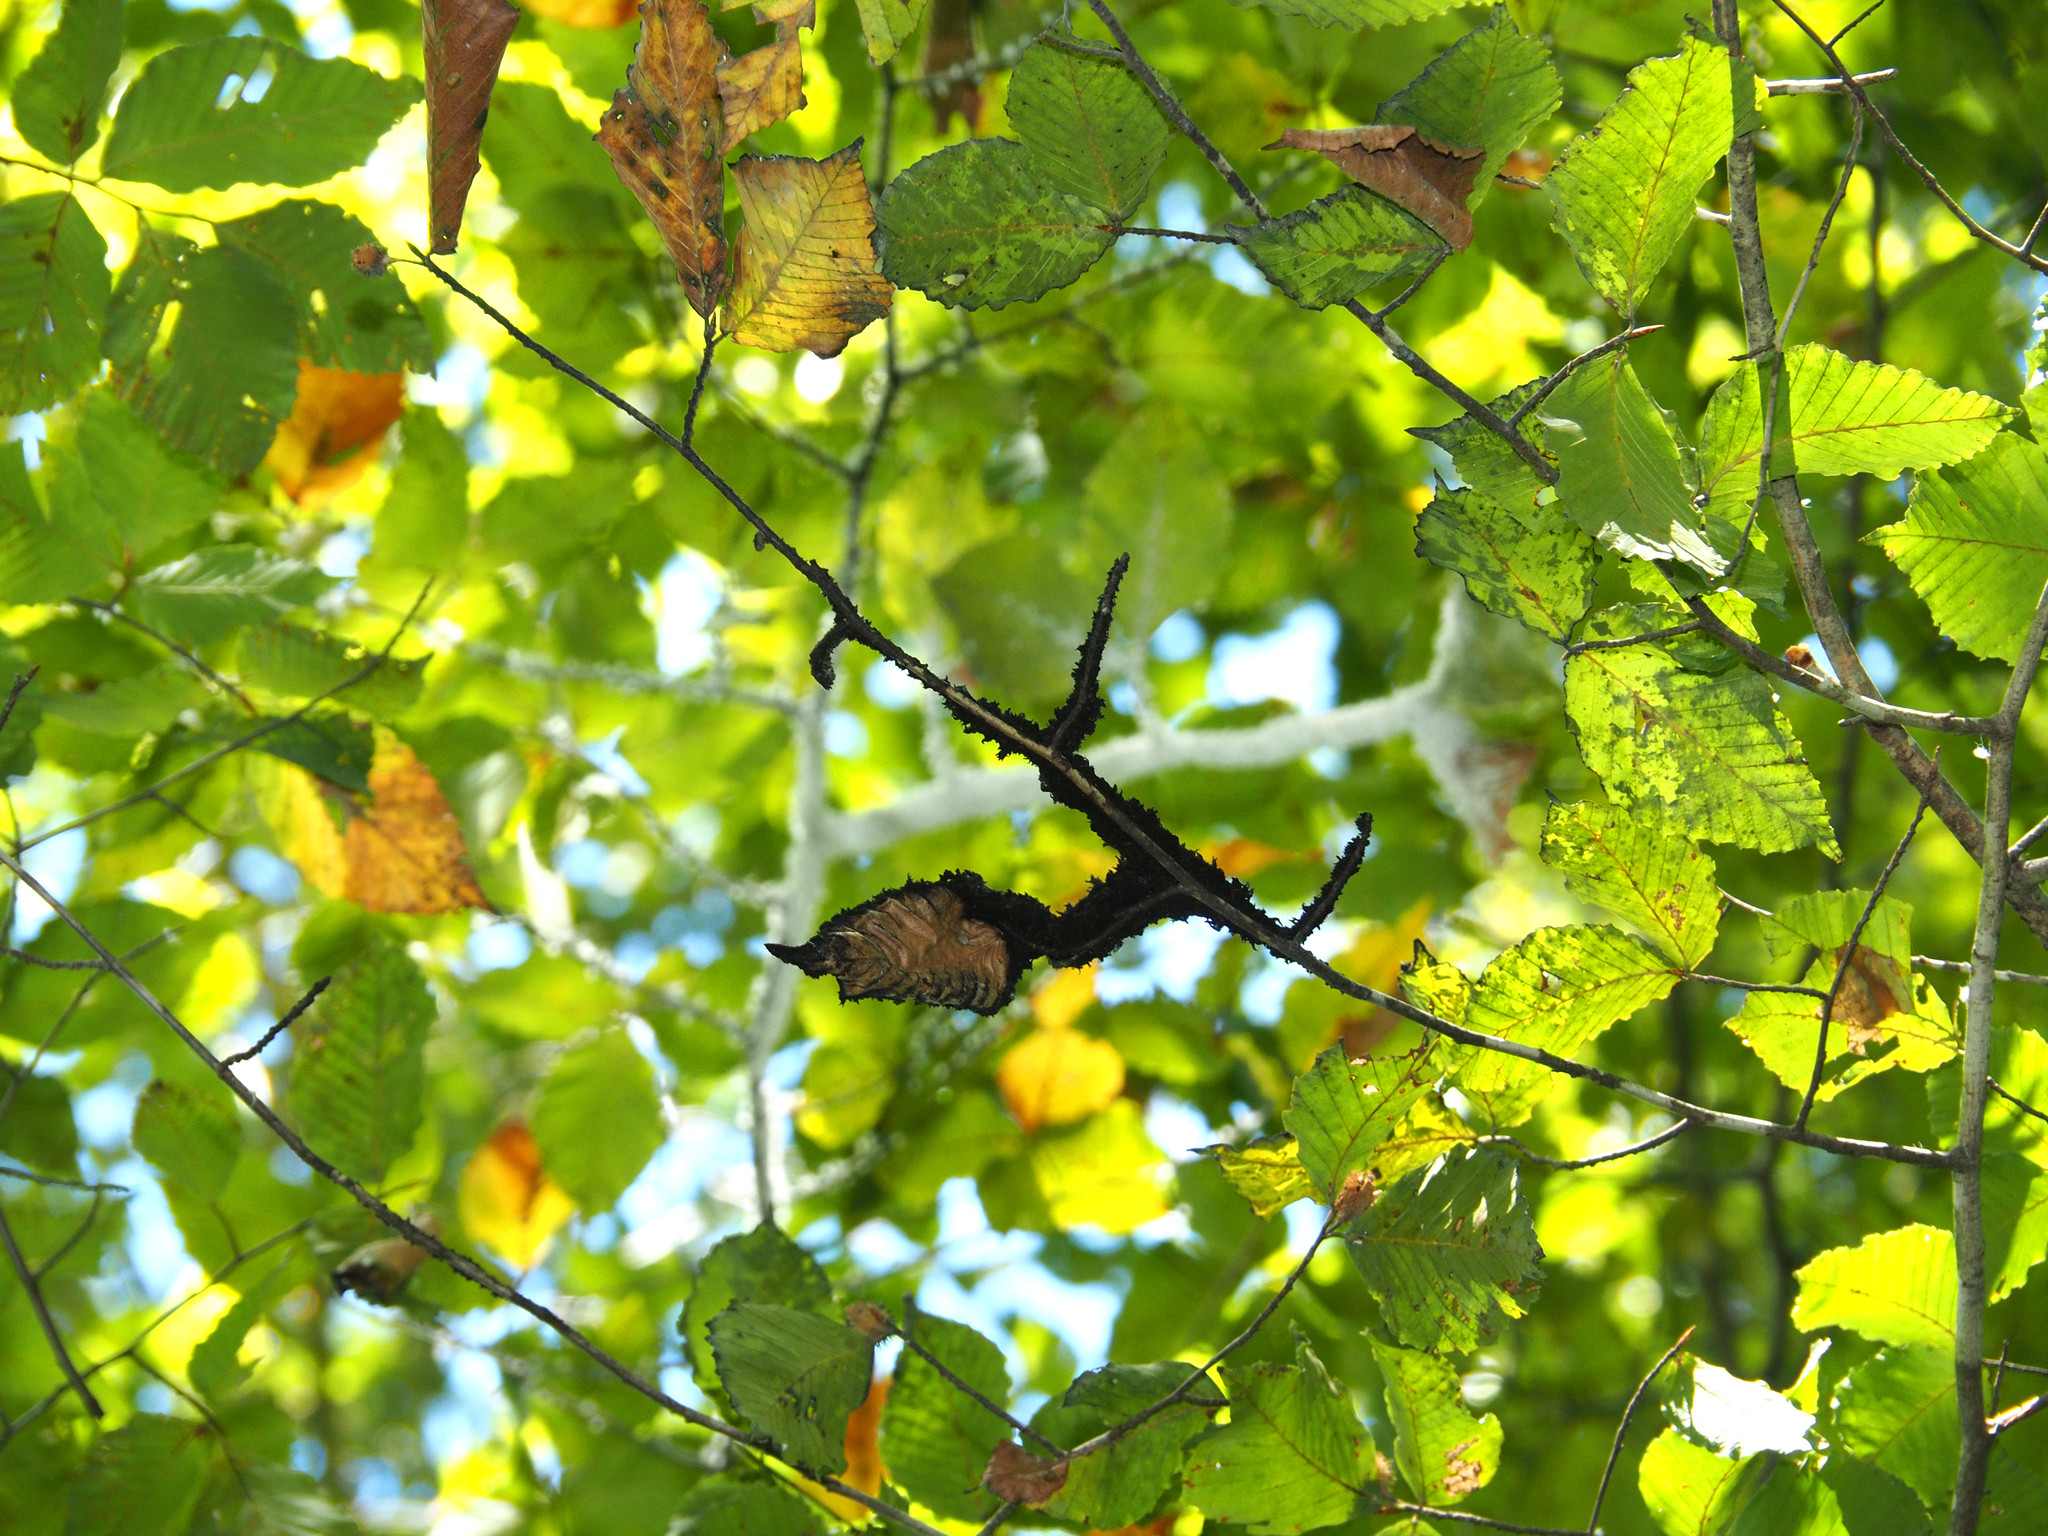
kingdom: Fungi
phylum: Ascomycota
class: Dothideomycetes
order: Capnodiales
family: Capnodiaceae
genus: Scorias
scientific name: Scorias spongiosa
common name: Black sooty mold
